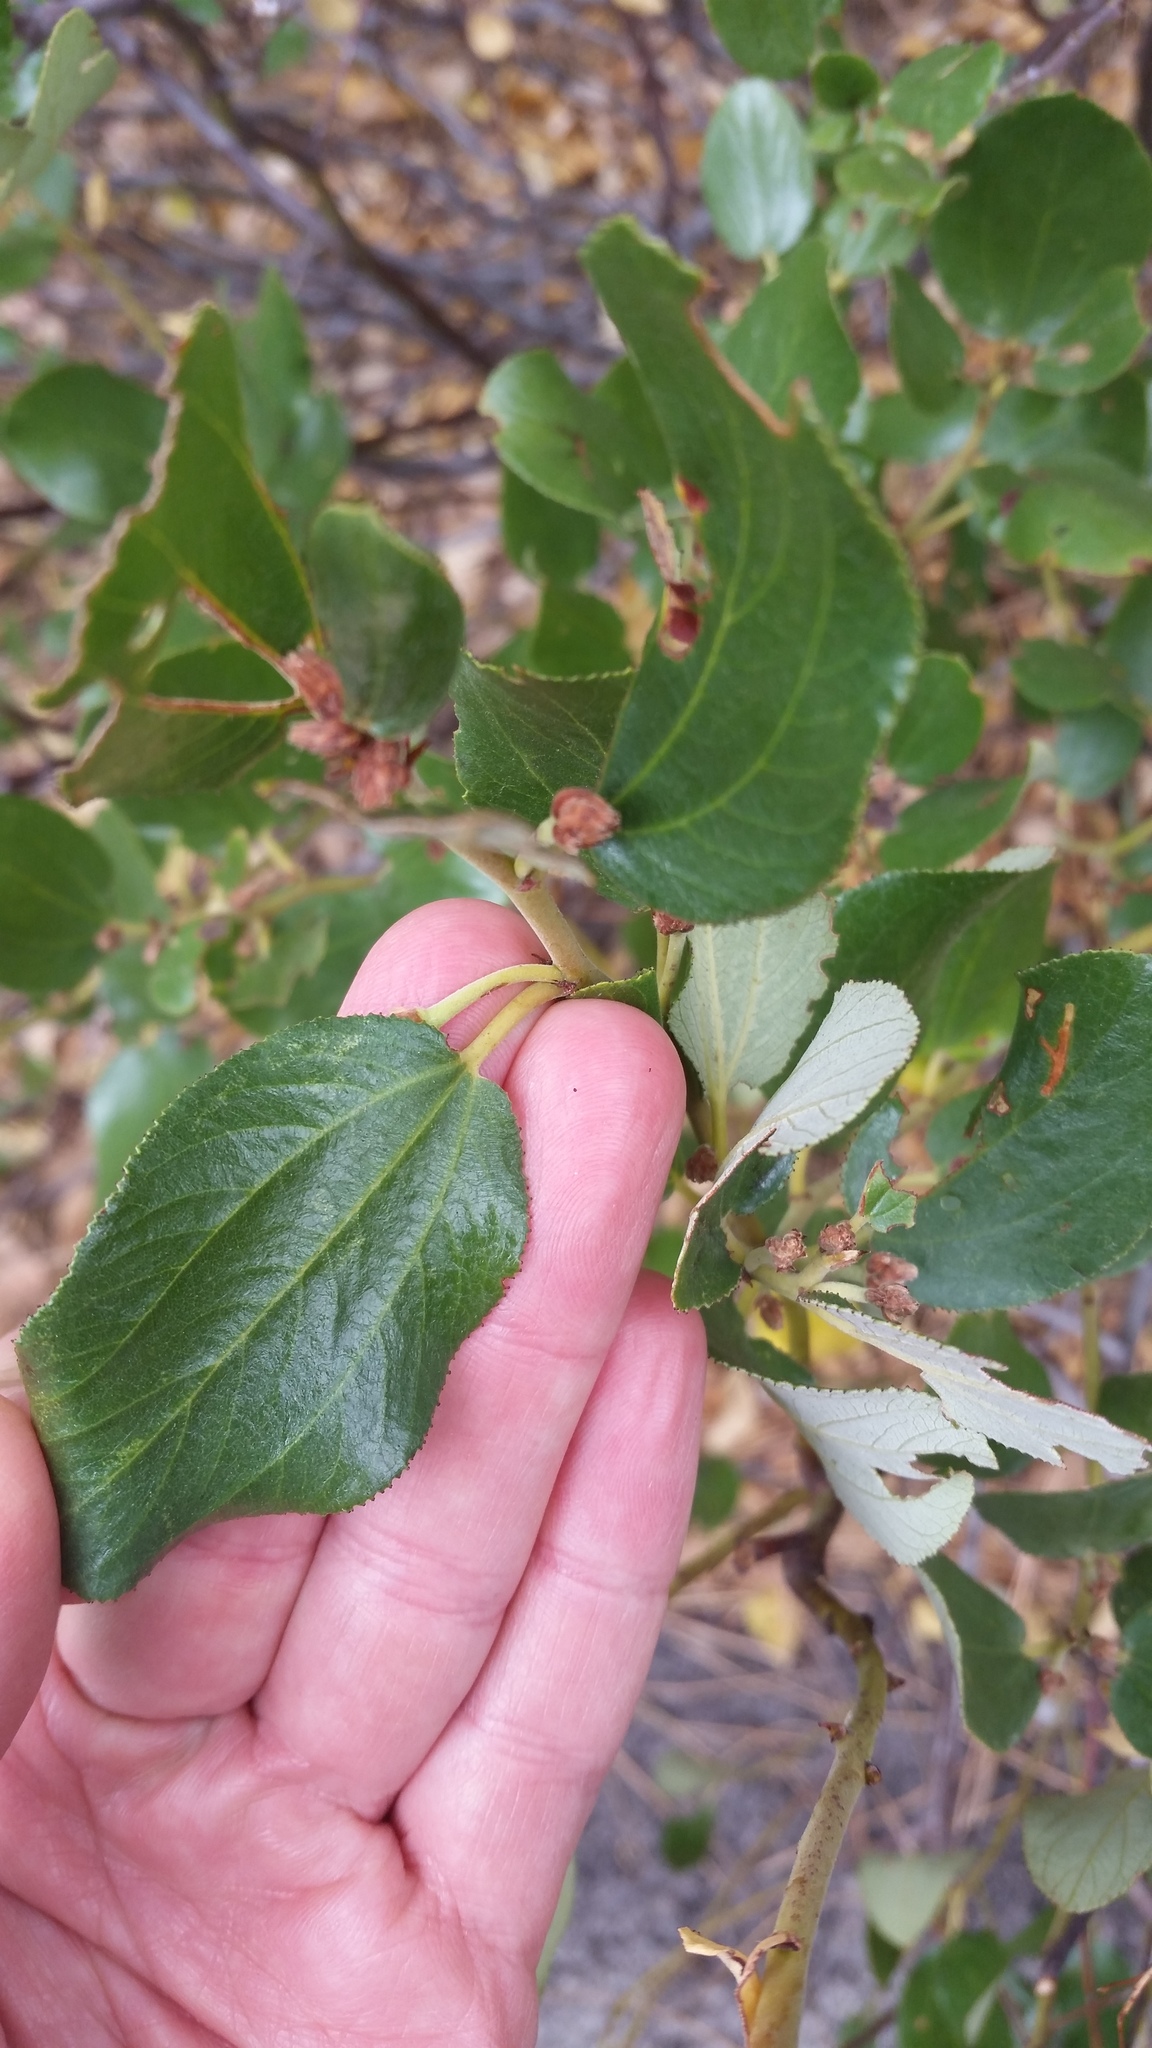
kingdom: Plantae
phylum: Tracheophyta
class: Magnoliopsida
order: Rosales
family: Rhamnaceae
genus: Ceanothus
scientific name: Ceanothus velutinus
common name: Snowbrush
